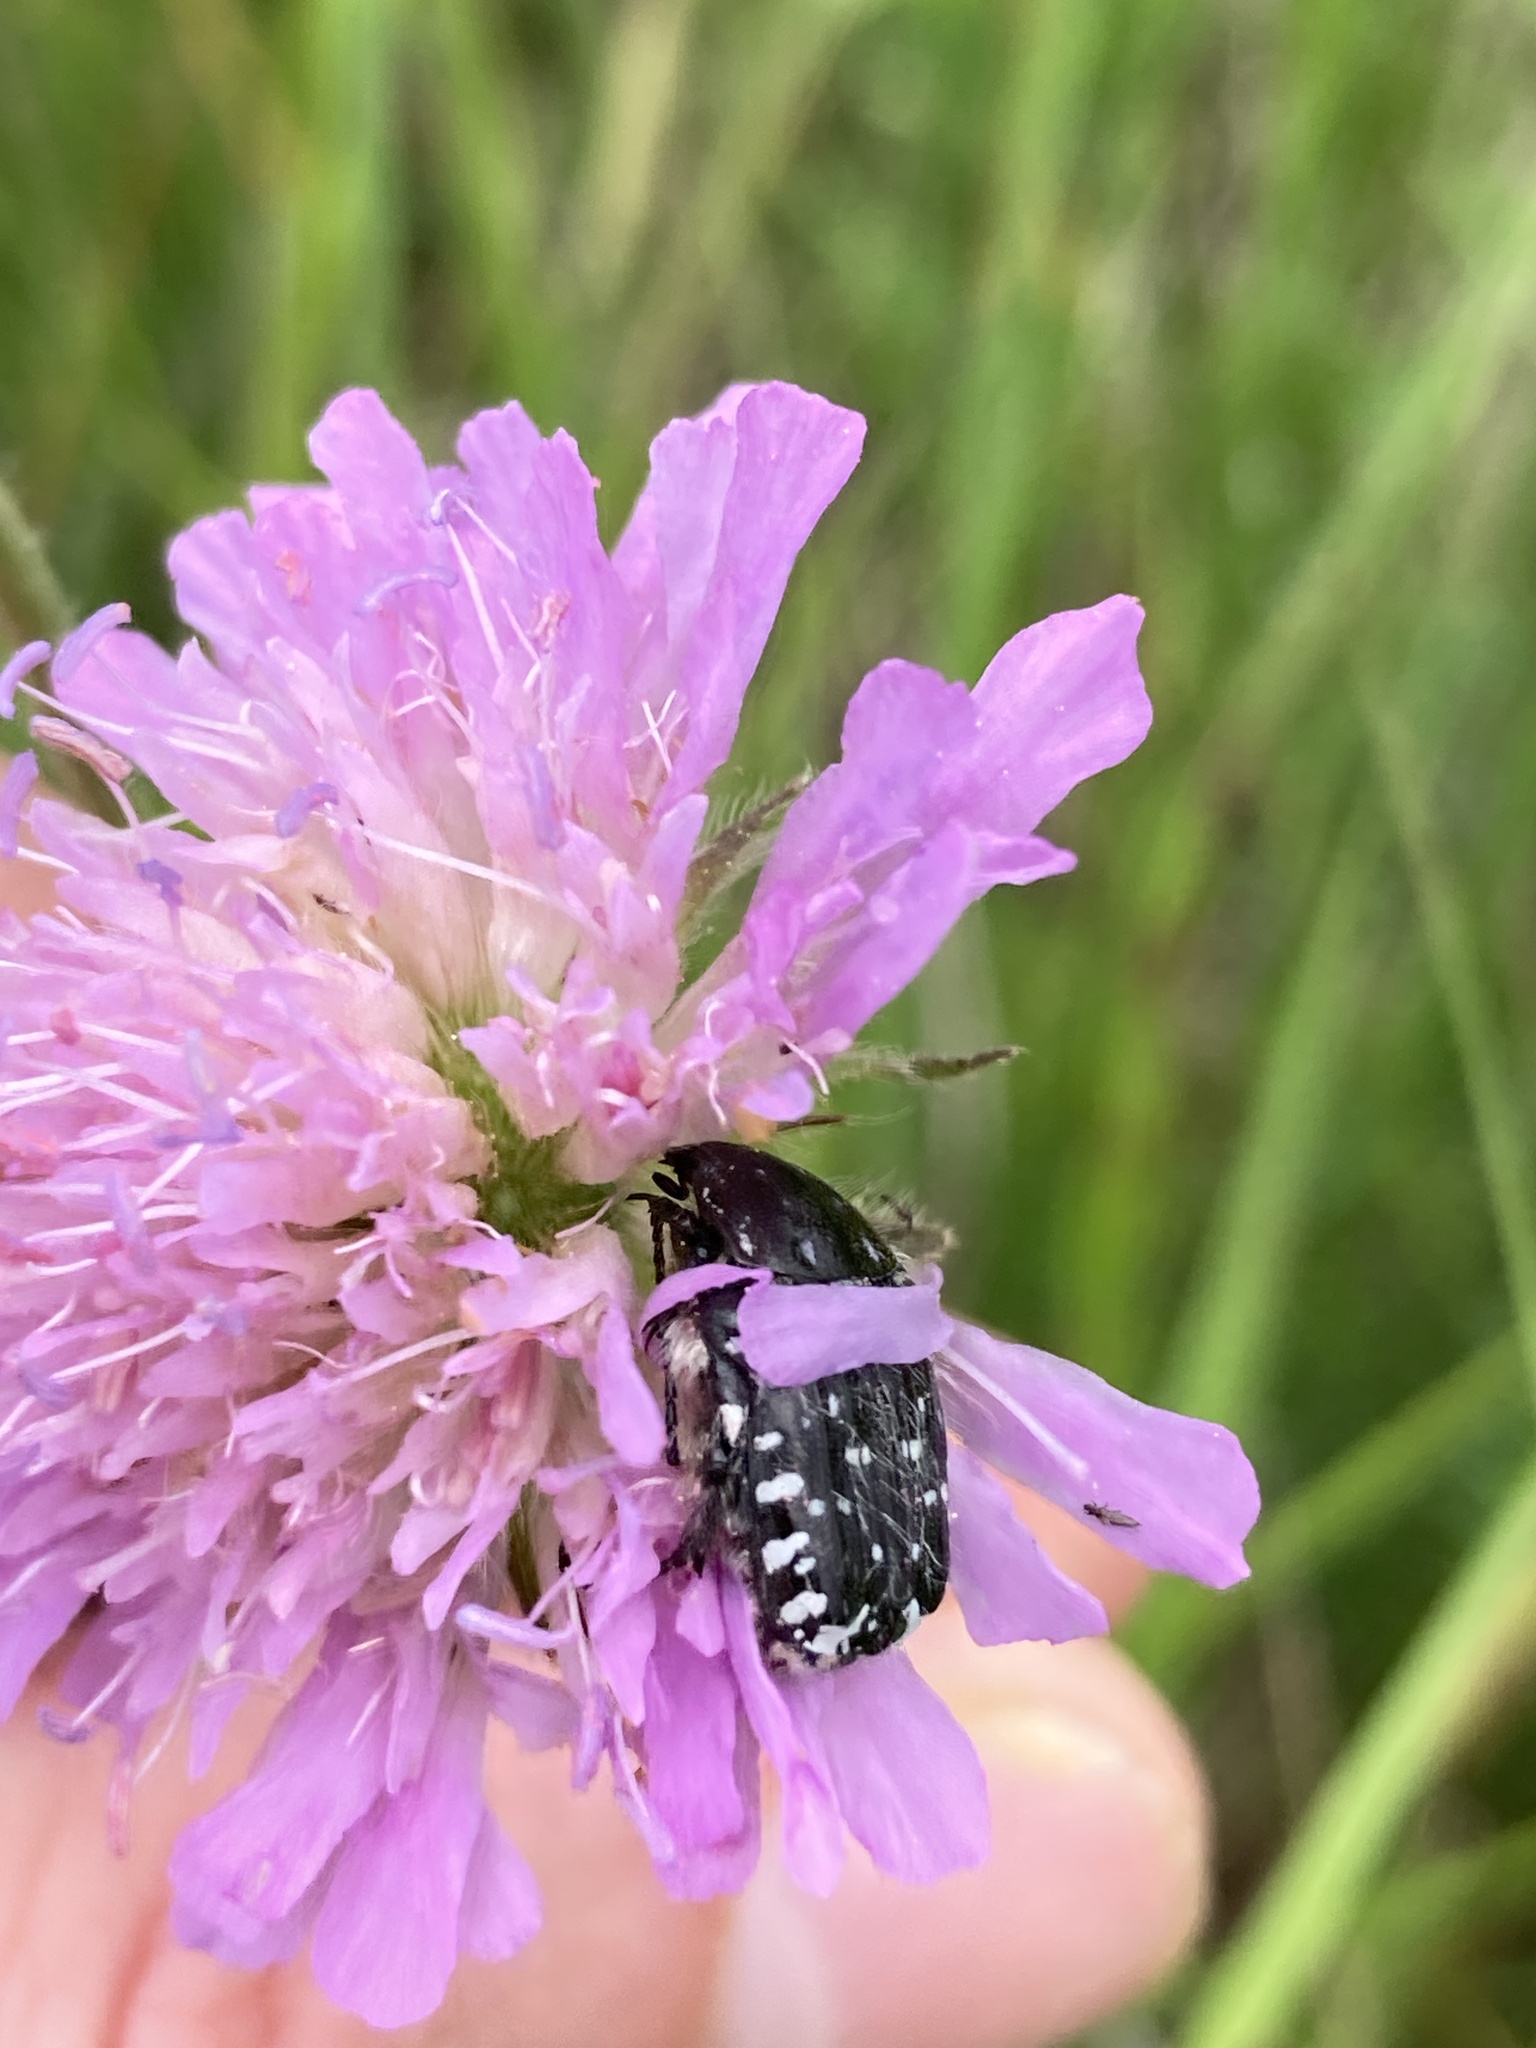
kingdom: Animalia
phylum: Arthropoda
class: Insecta
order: Coleoptera
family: Scarabaeidae
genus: Oxythyrea
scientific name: Oxythyrea funesta
